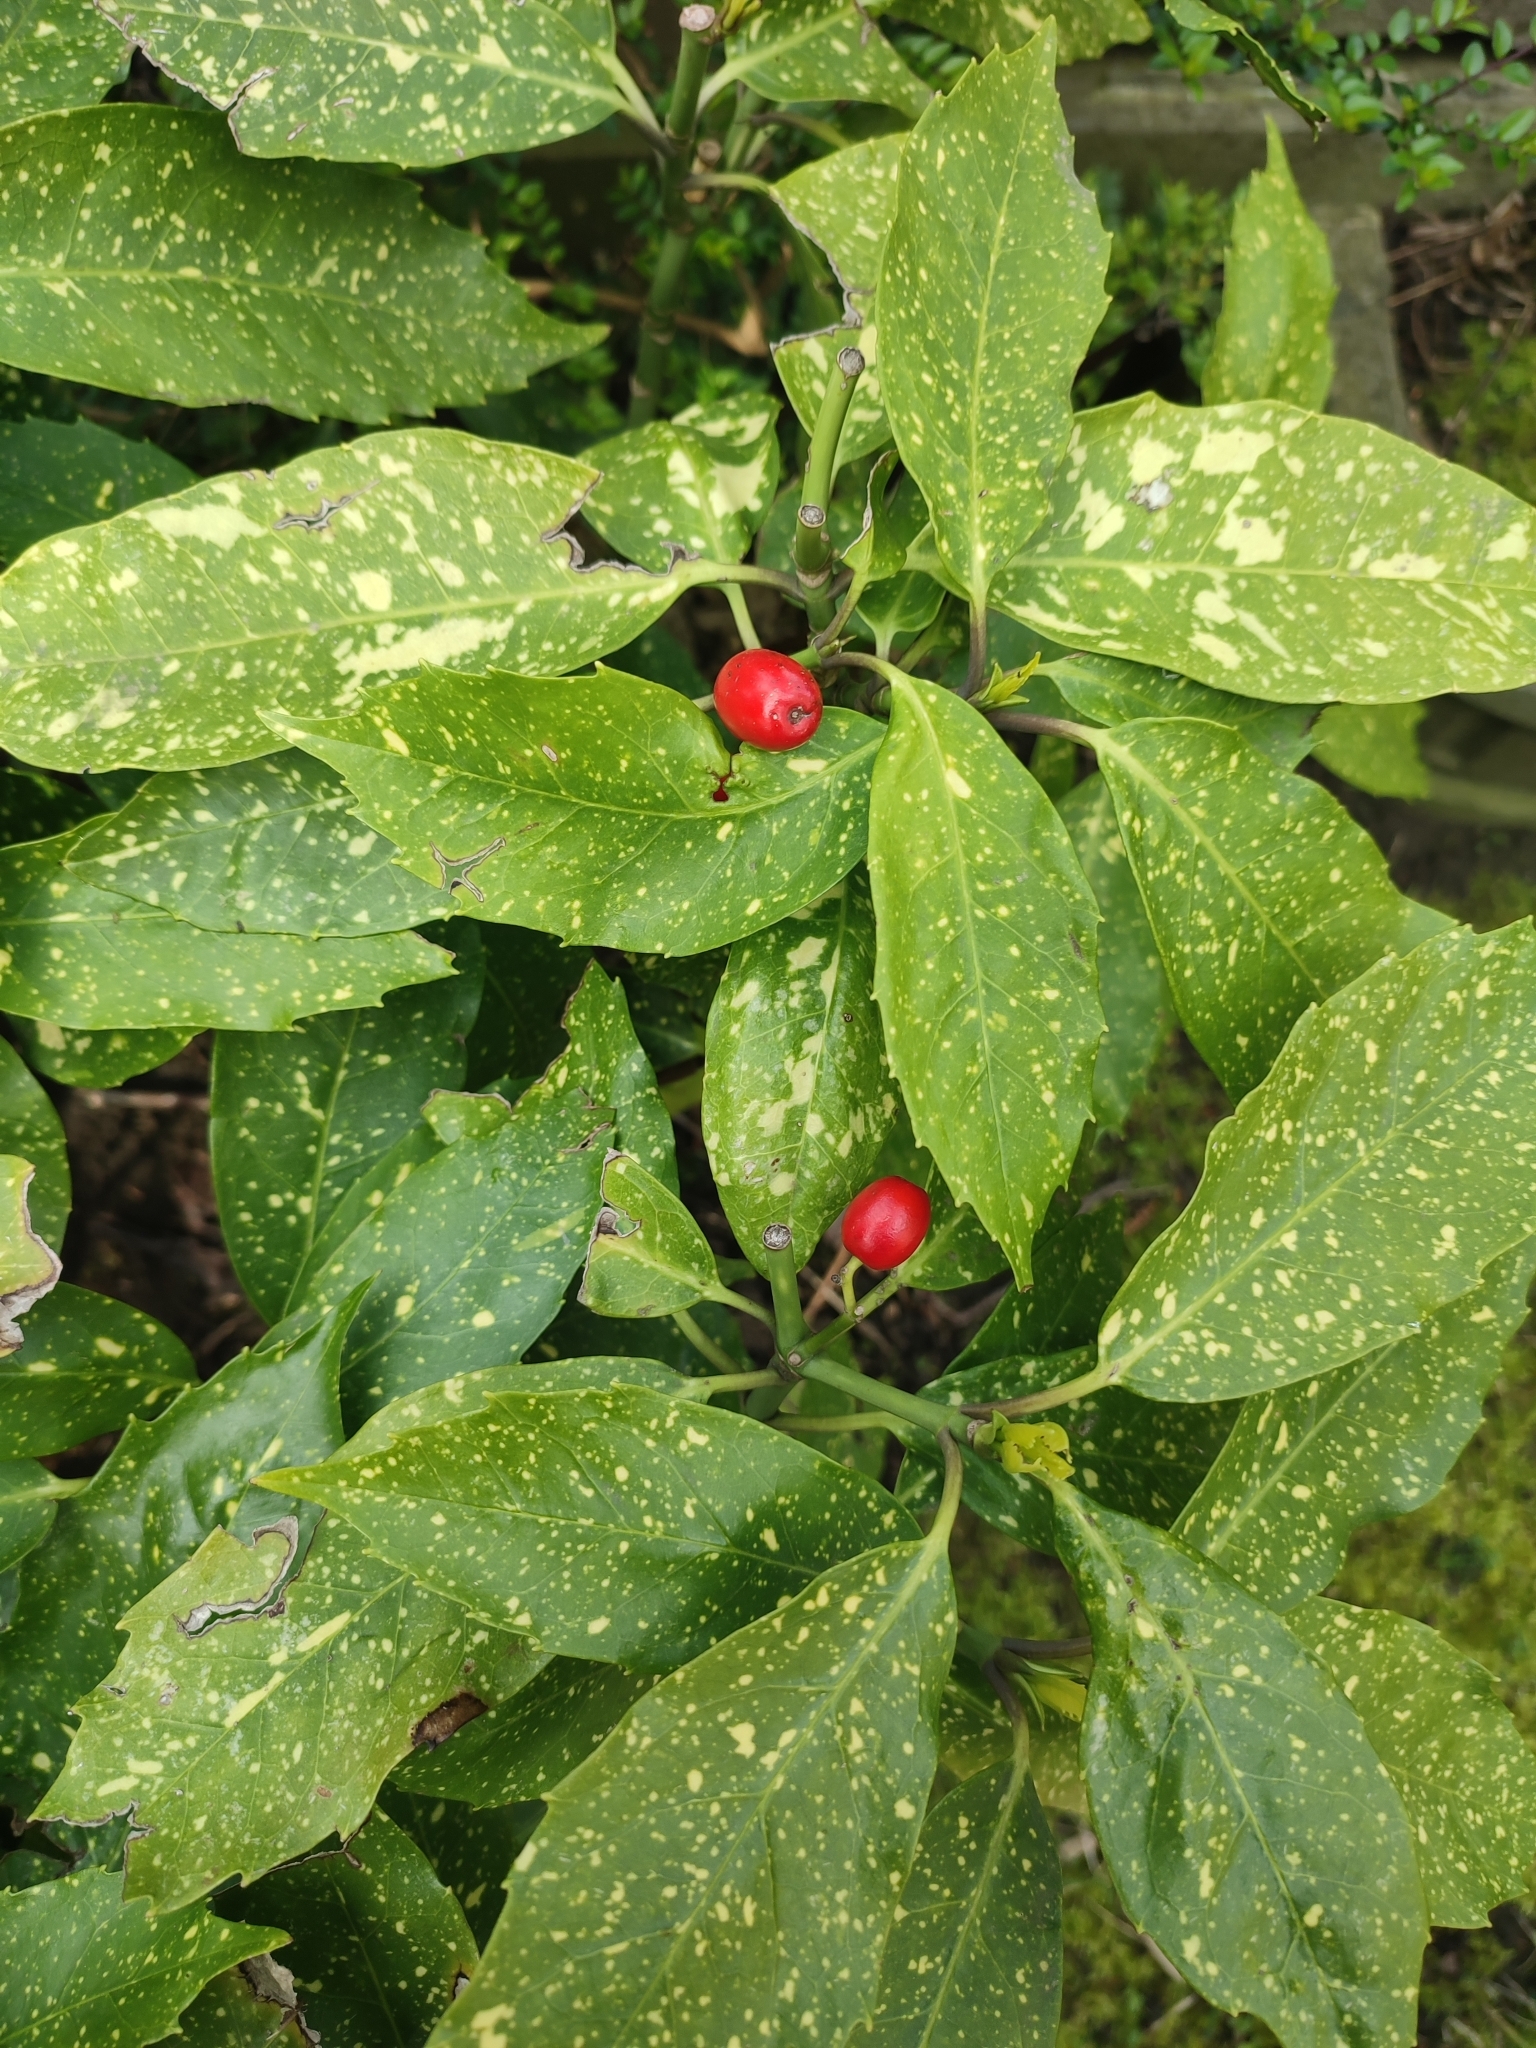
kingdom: Plantae
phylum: Tracheophyta
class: Magnoliopsida
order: Garryales
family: Garryaceae
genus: Aucuba
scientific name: Aucuba japonica
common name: Spotted-laurel
